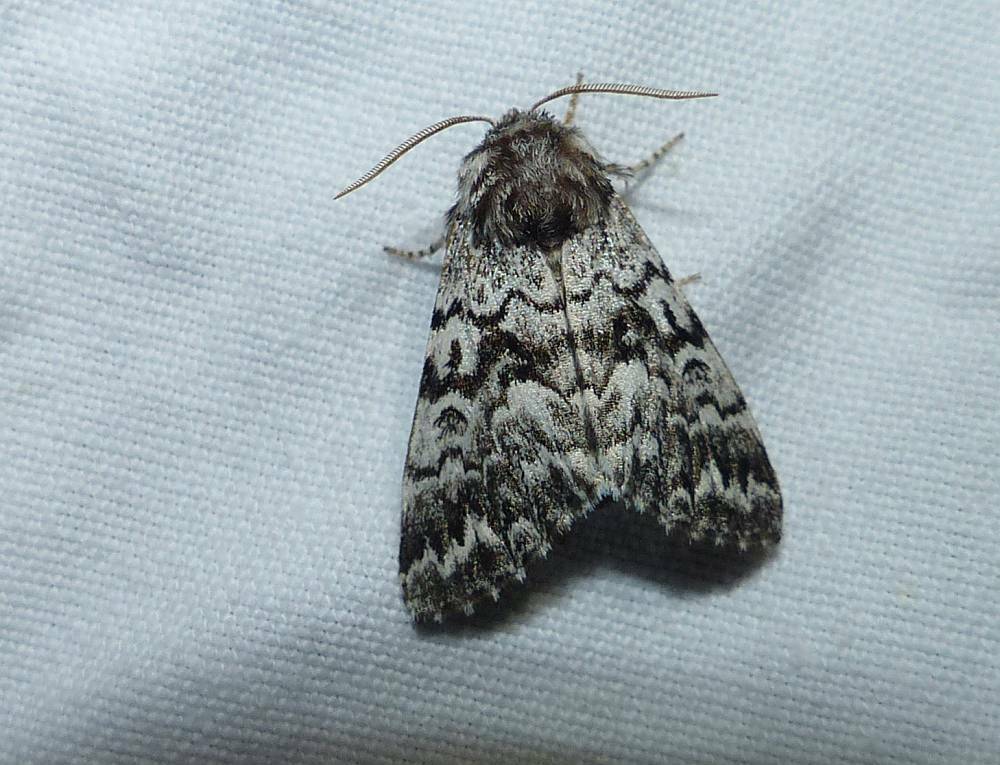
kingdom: Animalia
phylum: Arthropoda
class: Insecta
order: Lepidoptera
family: Noctuidae
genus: Panthea
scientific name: Panthea acronyctoides
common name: Black zigzag moth
